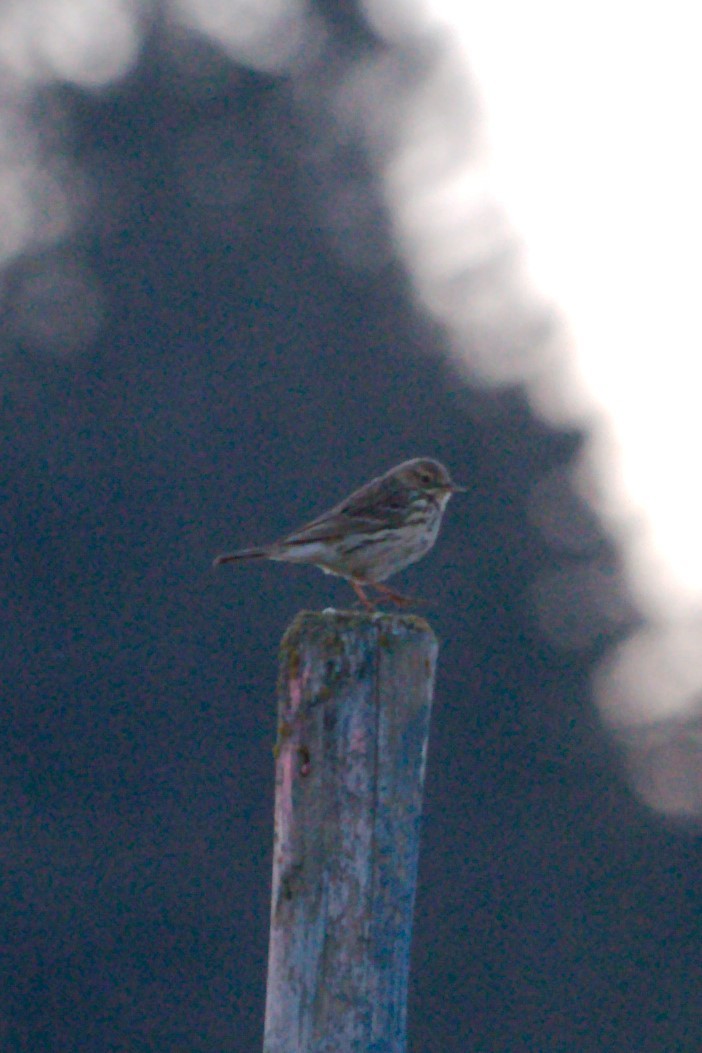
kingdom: Animalia
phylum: Chordata
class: Aves
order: Passeriformes
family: Motacillidae
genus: Anthus
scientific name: Anthus pratensis
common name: Meadow pipit
